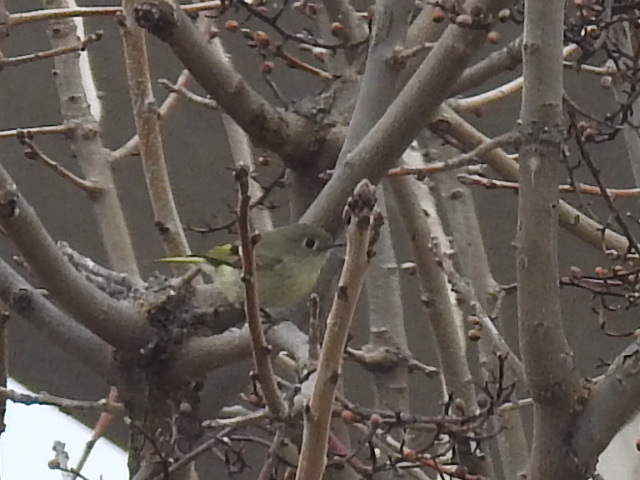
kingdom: Animalia
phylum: Chordata
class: Aves
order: Passeriformes
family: Regulidae
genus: Regulus
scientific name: Regulus calendula
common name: Ruby-crowned kinglet
